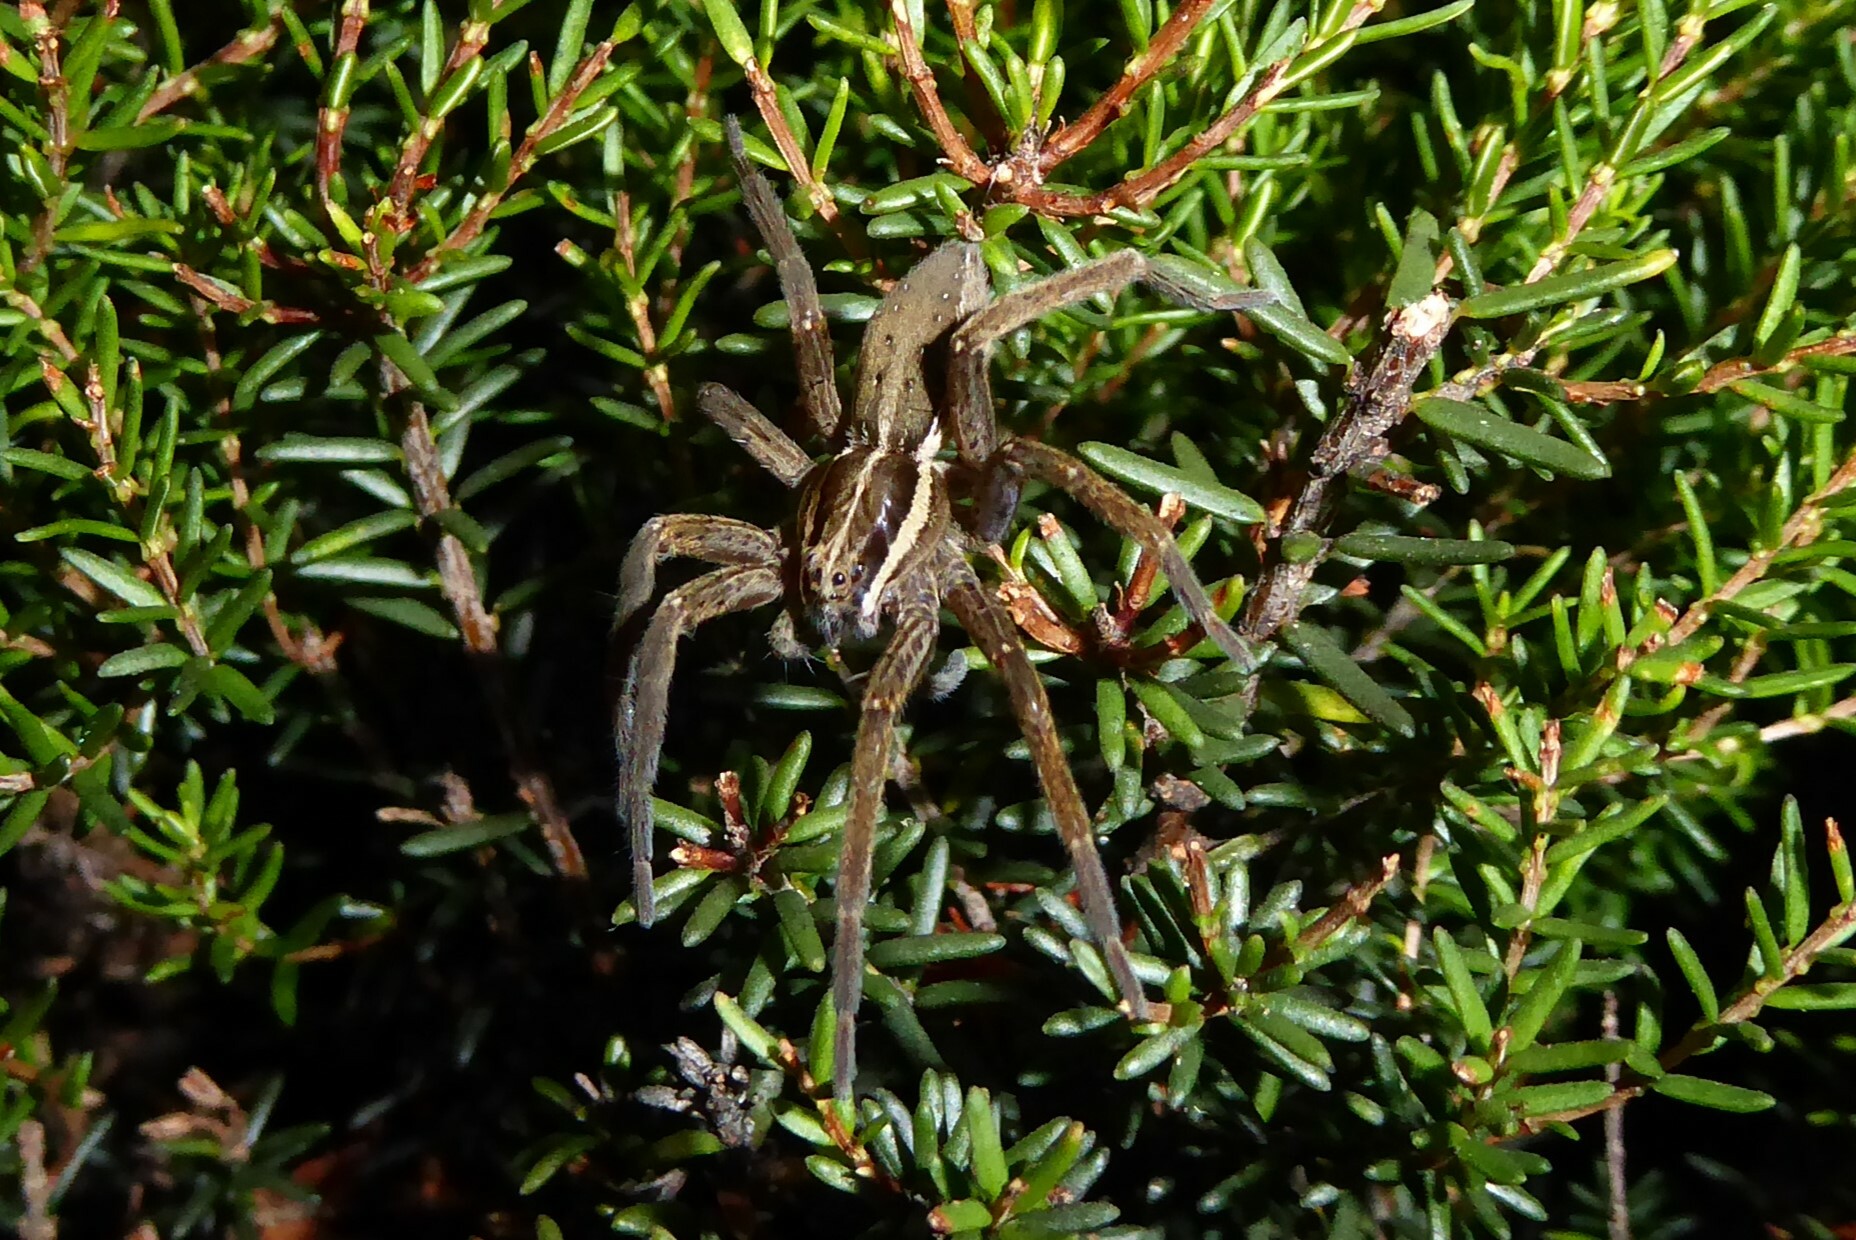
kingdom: Animalia
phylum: Arthropoda
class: Arachnida
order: Araneae
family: Pisauridae
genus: Dolomedes
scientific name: Dolomedes minor
